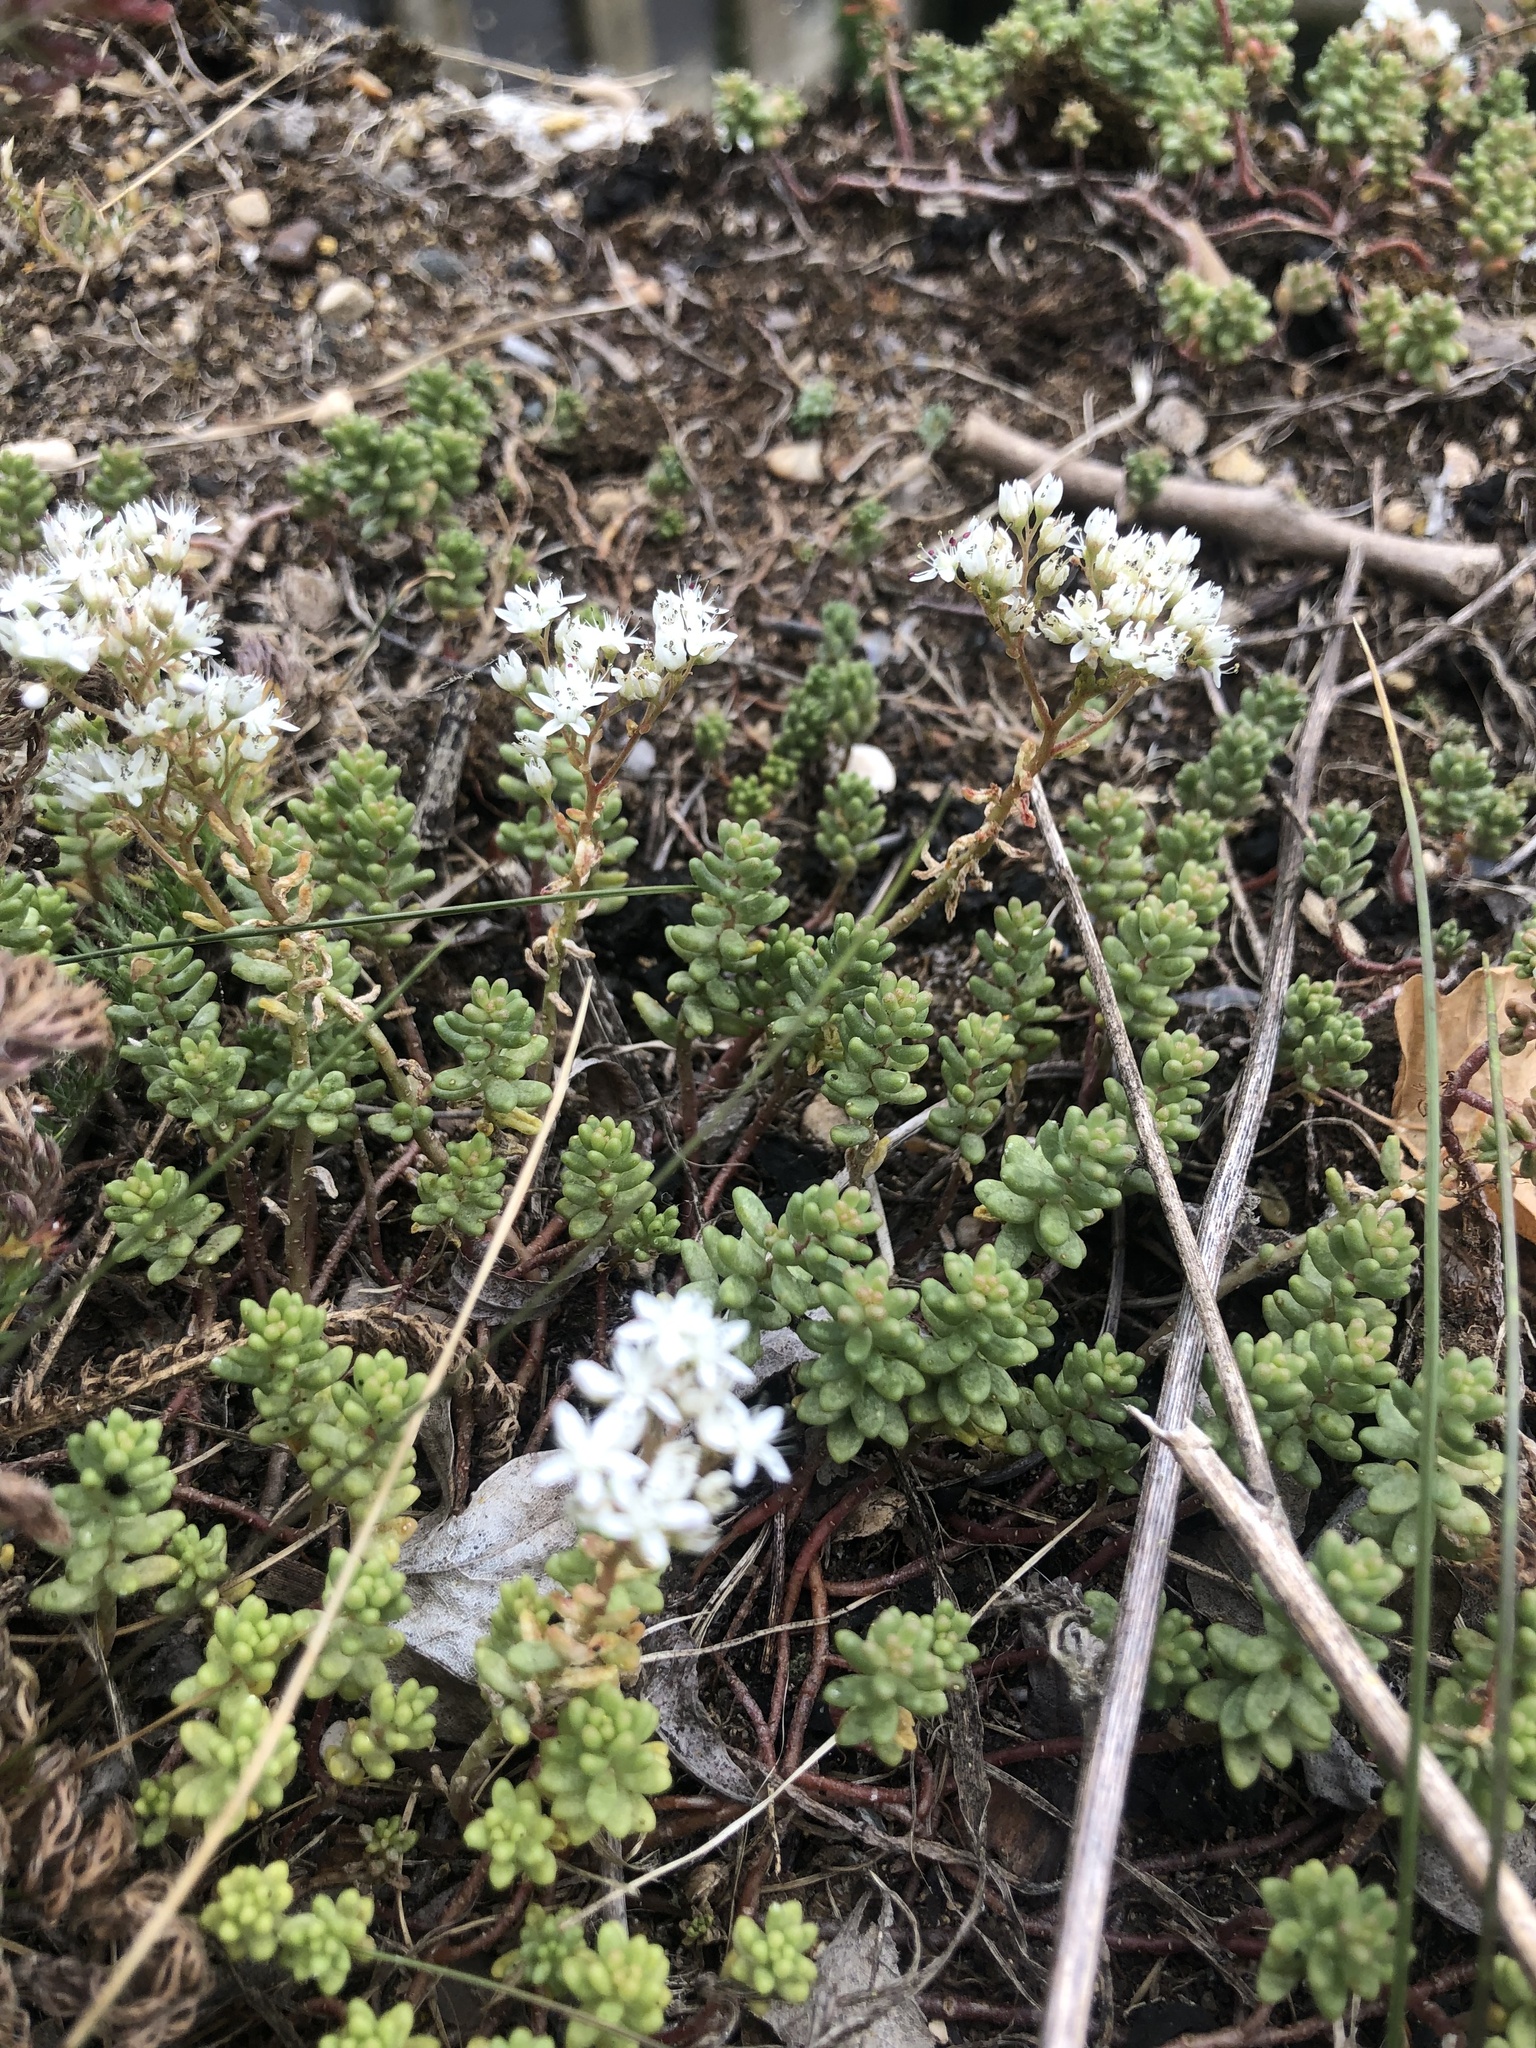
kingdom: Plantae
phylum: Tracheophyta
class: Magnoliopsida
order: Saxifragales
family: Crassulaceae
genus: Sedum
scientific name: Sedum album
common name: White stonecrop
